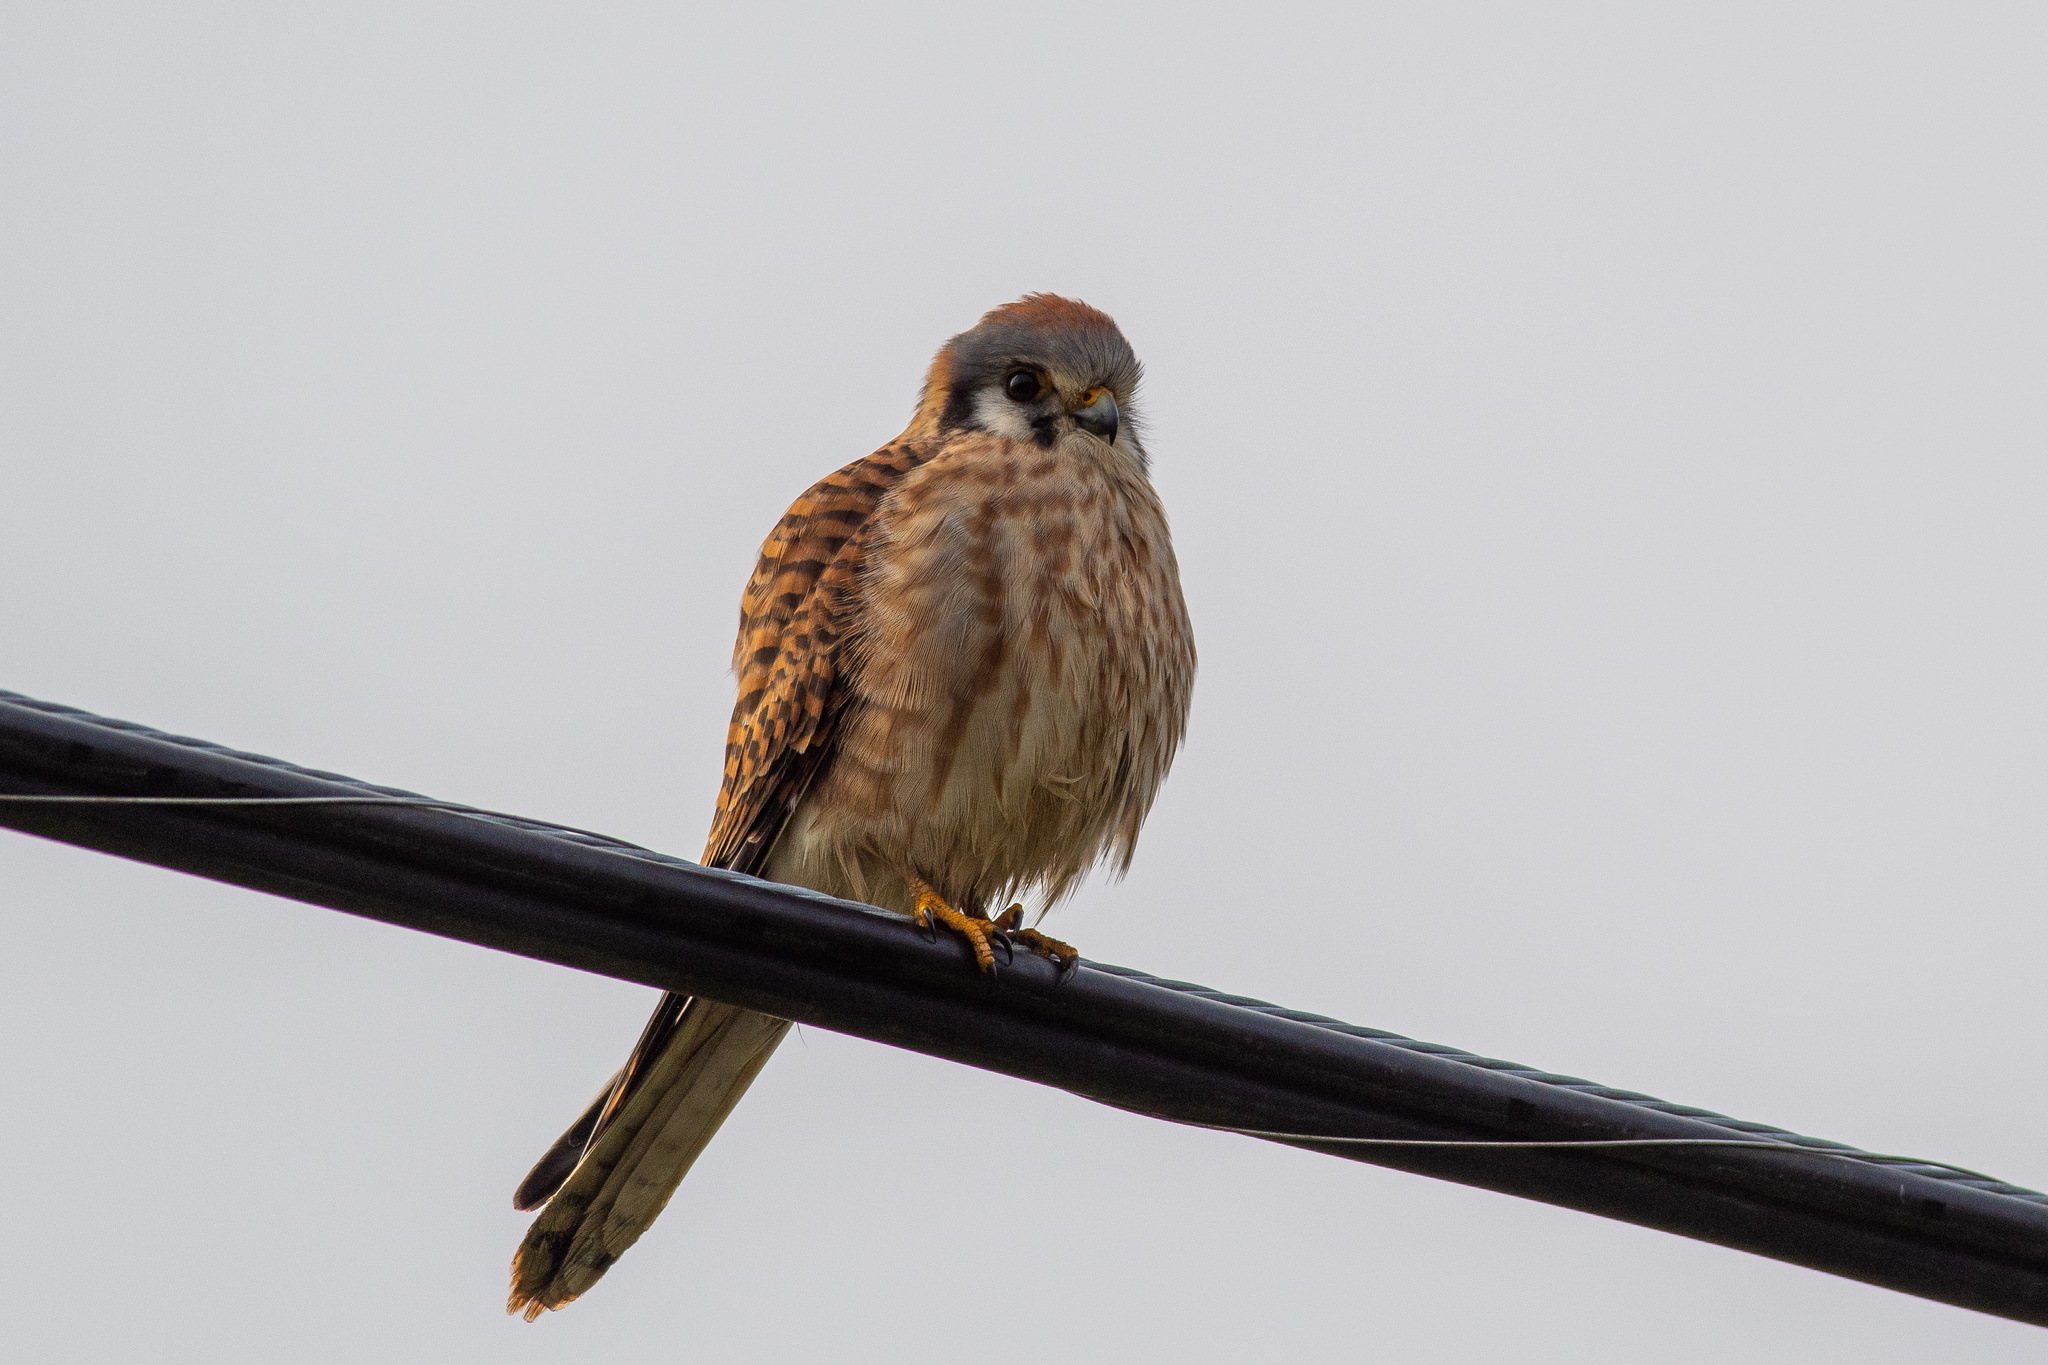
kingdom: Animalia
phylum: Chordata
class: Aves
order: Falconiformes
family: Falconidae
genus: Falco
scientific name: Falco sparverius
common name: American kestrel
